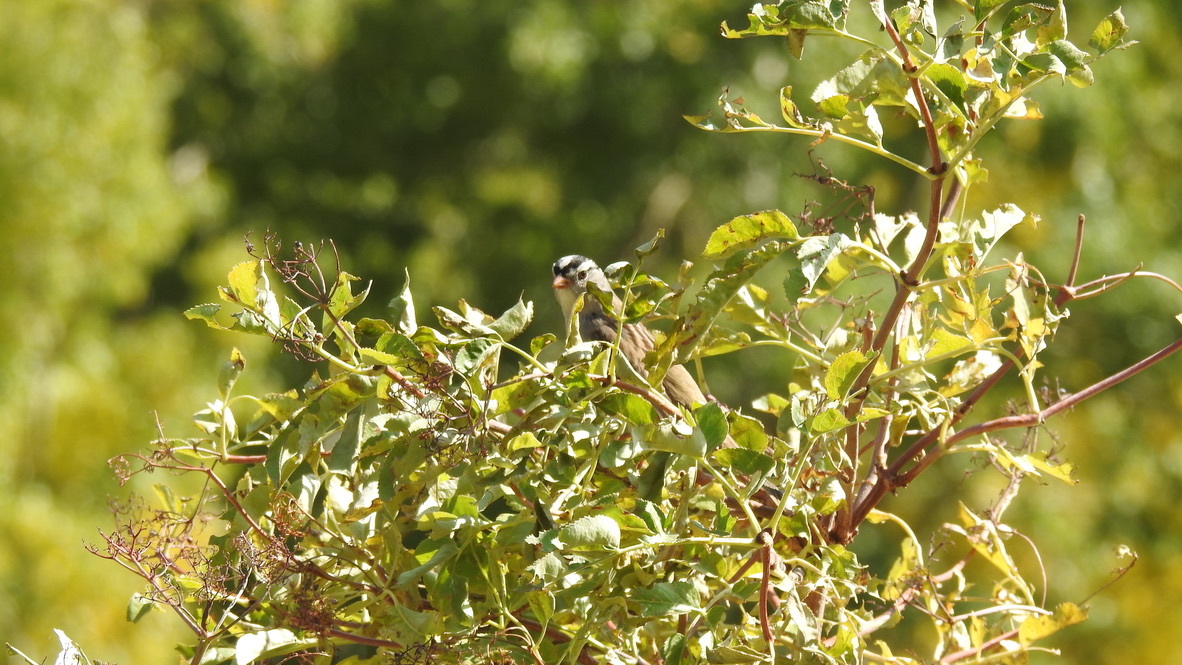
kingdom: Animalia
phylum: Chordata
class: Aves
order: Passeriformes
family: Passerellidae
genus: Zonotrichia
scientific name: Zonotrichia leucophrys
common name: White-crowned sparrow
